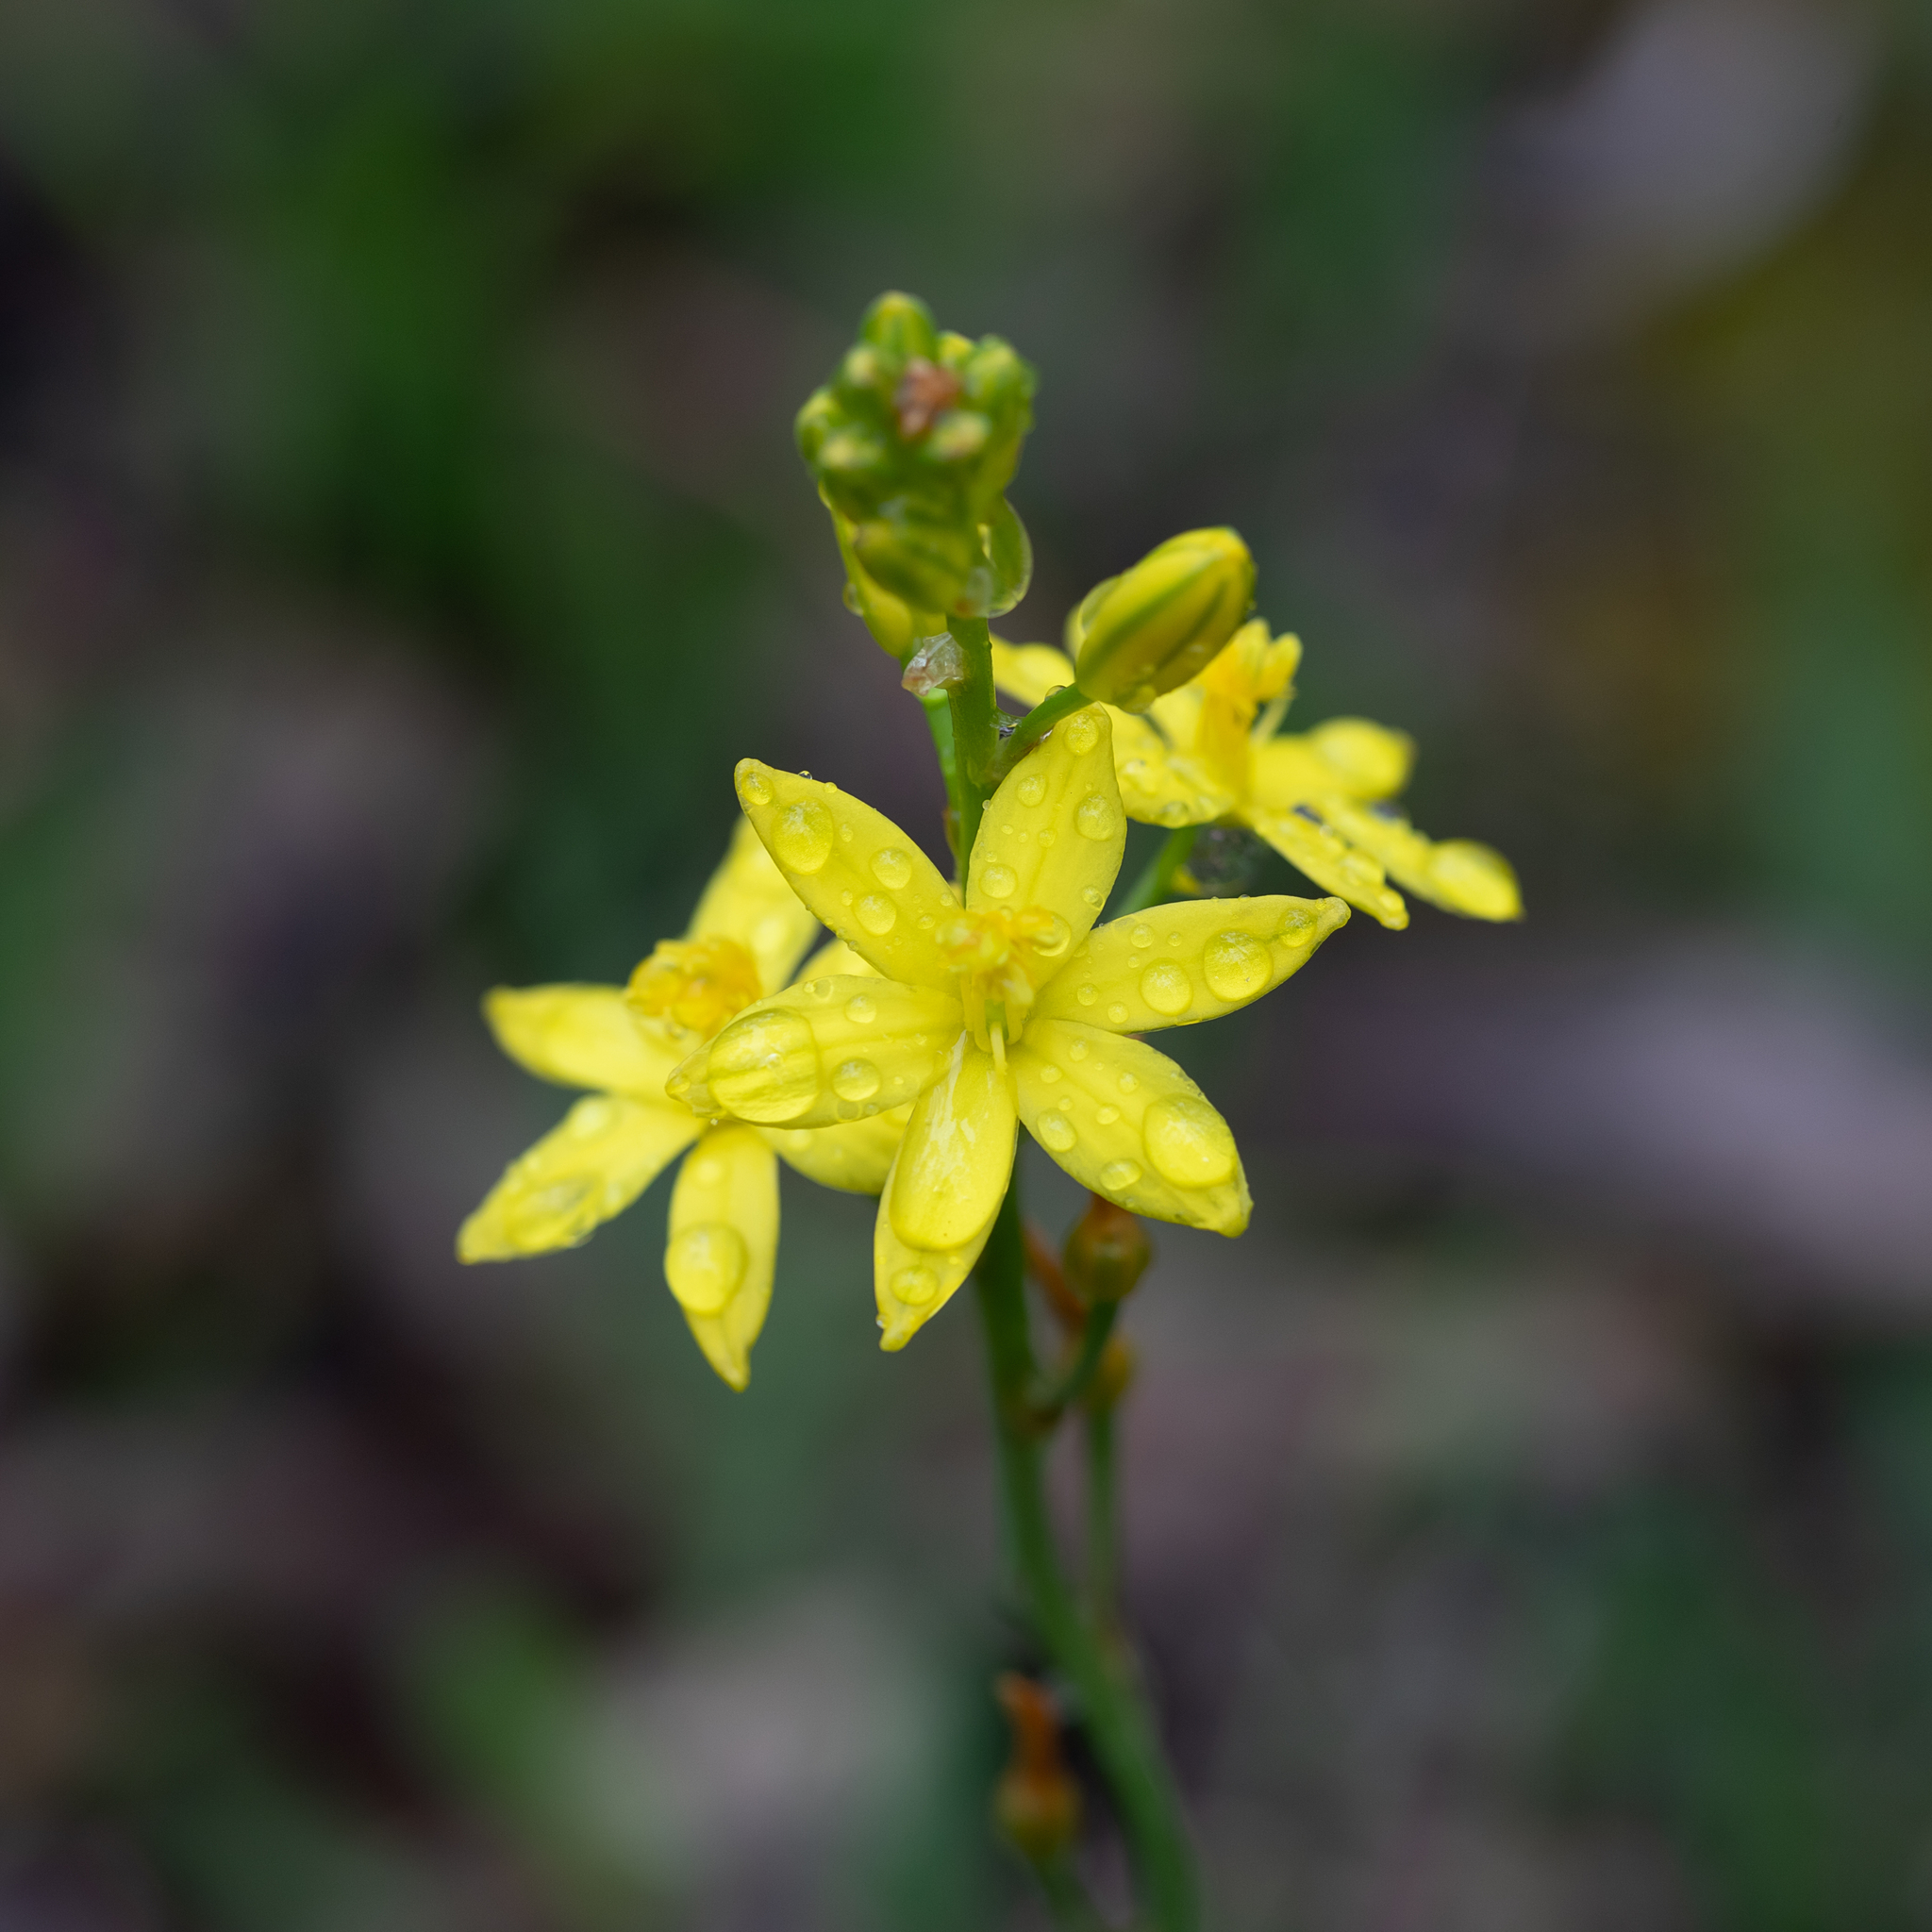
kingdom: Plantae
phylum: Tracheophyta
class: Liliopsida
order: Asparagales
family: Asphodelaceae
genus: Bulbine
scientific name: Bulbine bulbosa
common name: Golden-lily
